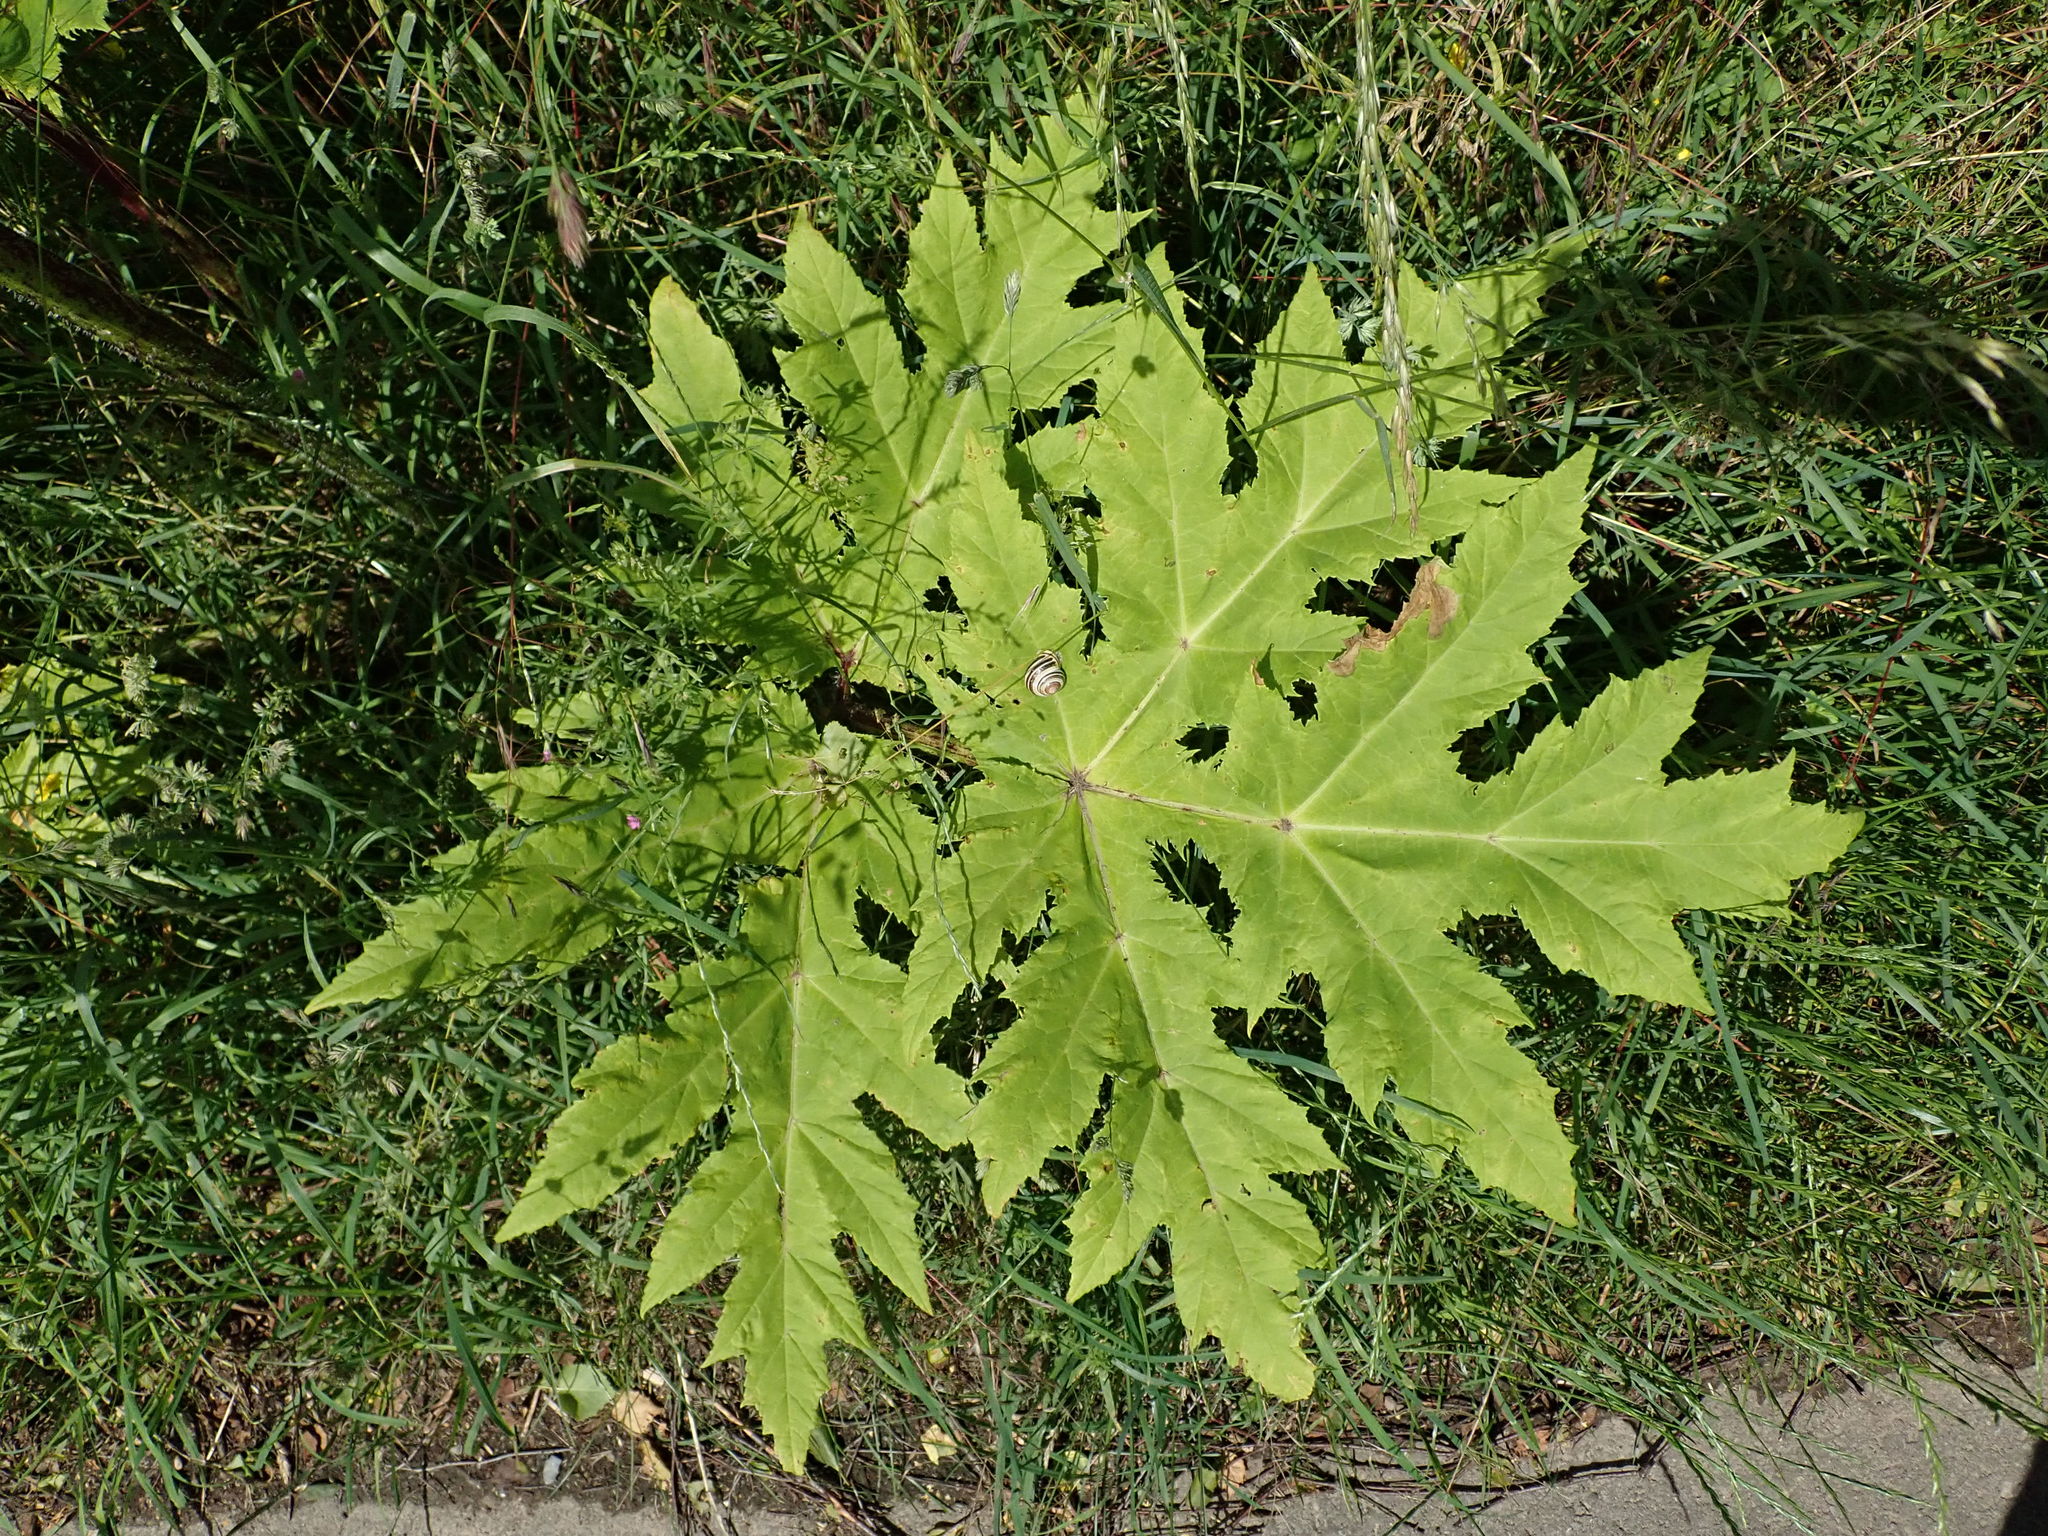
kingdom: Plantae
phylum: Tracheophyta
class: Magnoliopsida
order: Apiales
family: Apiaceae
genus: Heracleum
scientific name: Heracleum mantegazzianum
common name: Giant hogweed
